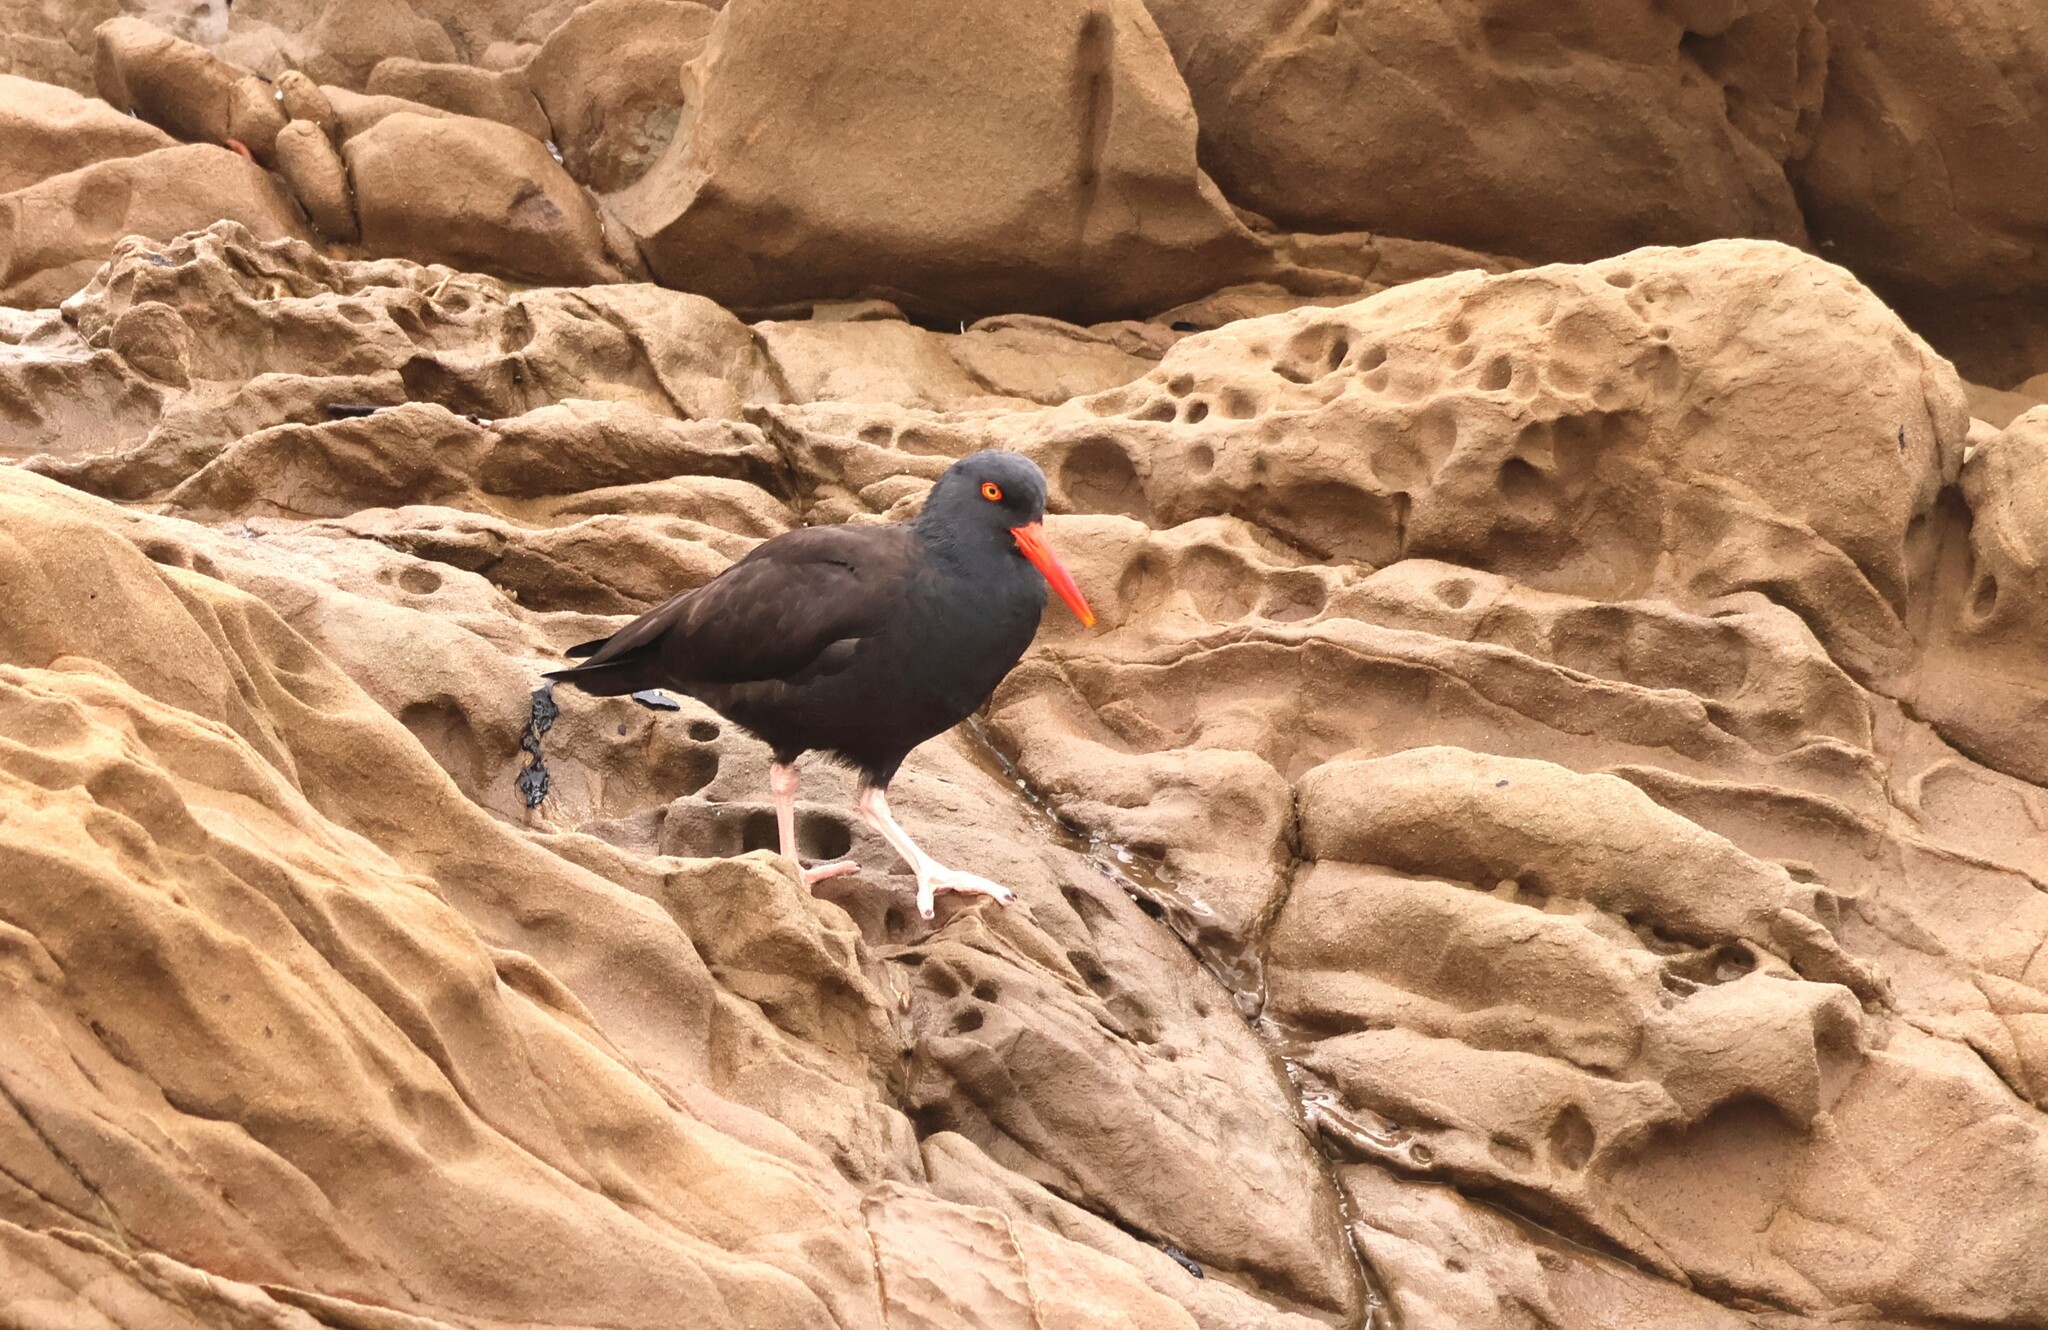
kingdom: Animalia
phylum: Chordata
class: Aves
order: Charadriiformes
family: Haematopodidae
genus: Haematopus
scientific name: Haematopus bachmani
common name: Black oystercatcher
